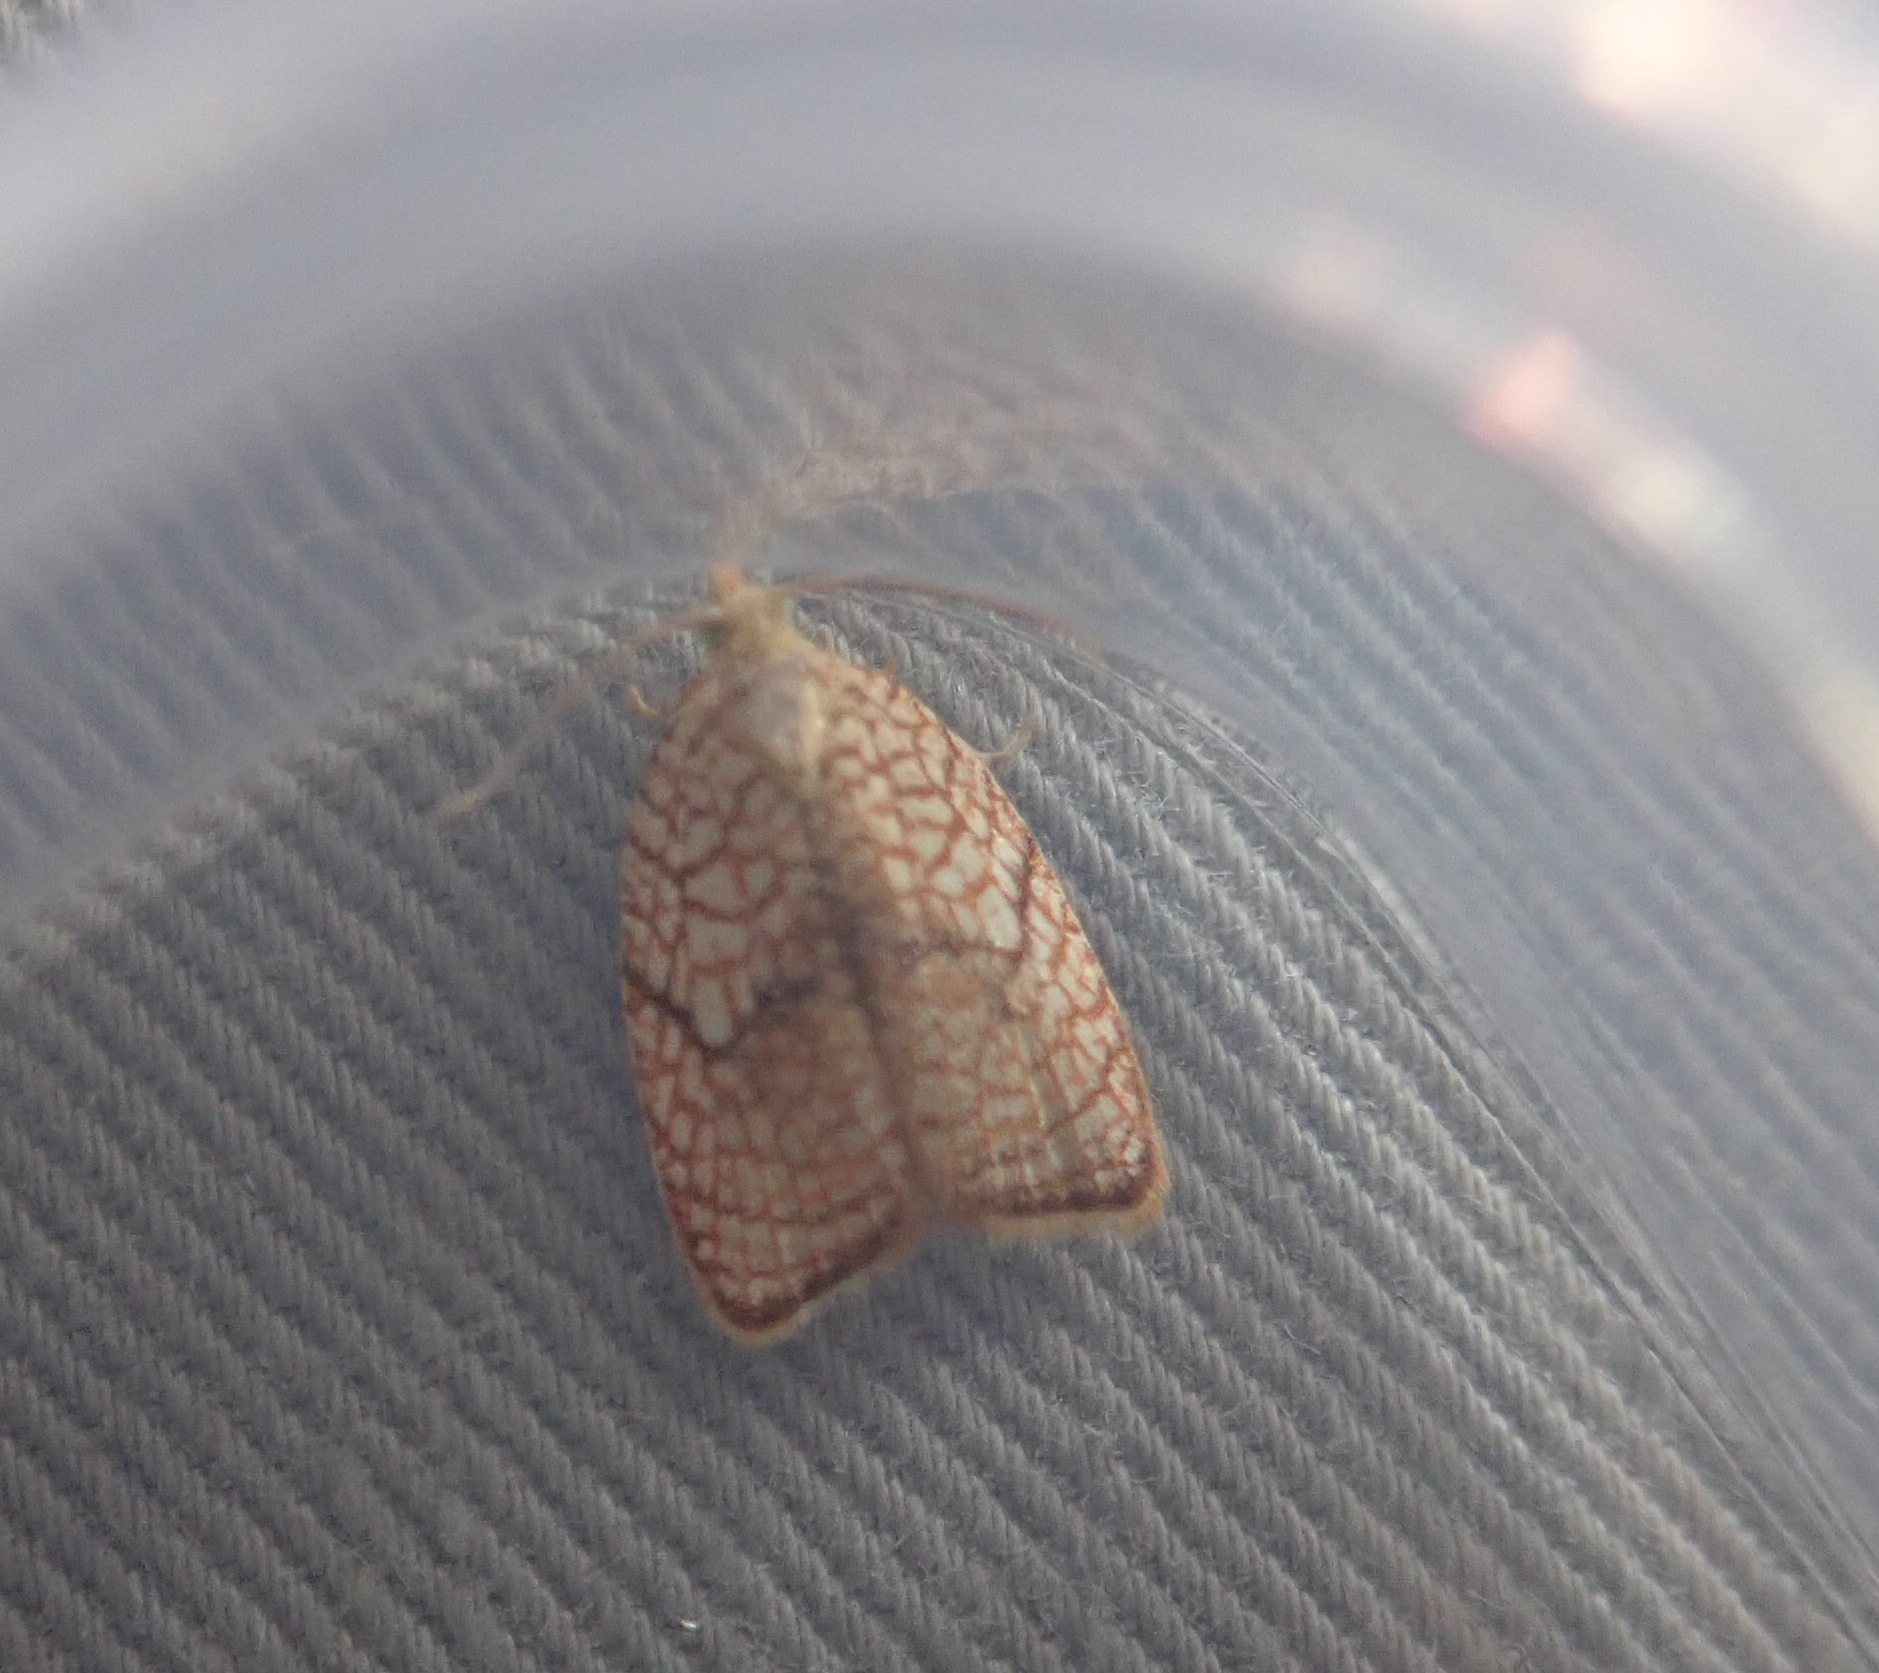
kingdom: Animalia
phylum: Arthropoda
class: Insecta
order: Lepidoptera
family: Tortricidae
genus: Acleris
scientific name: Acleris forsskaleana
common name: Maple button
